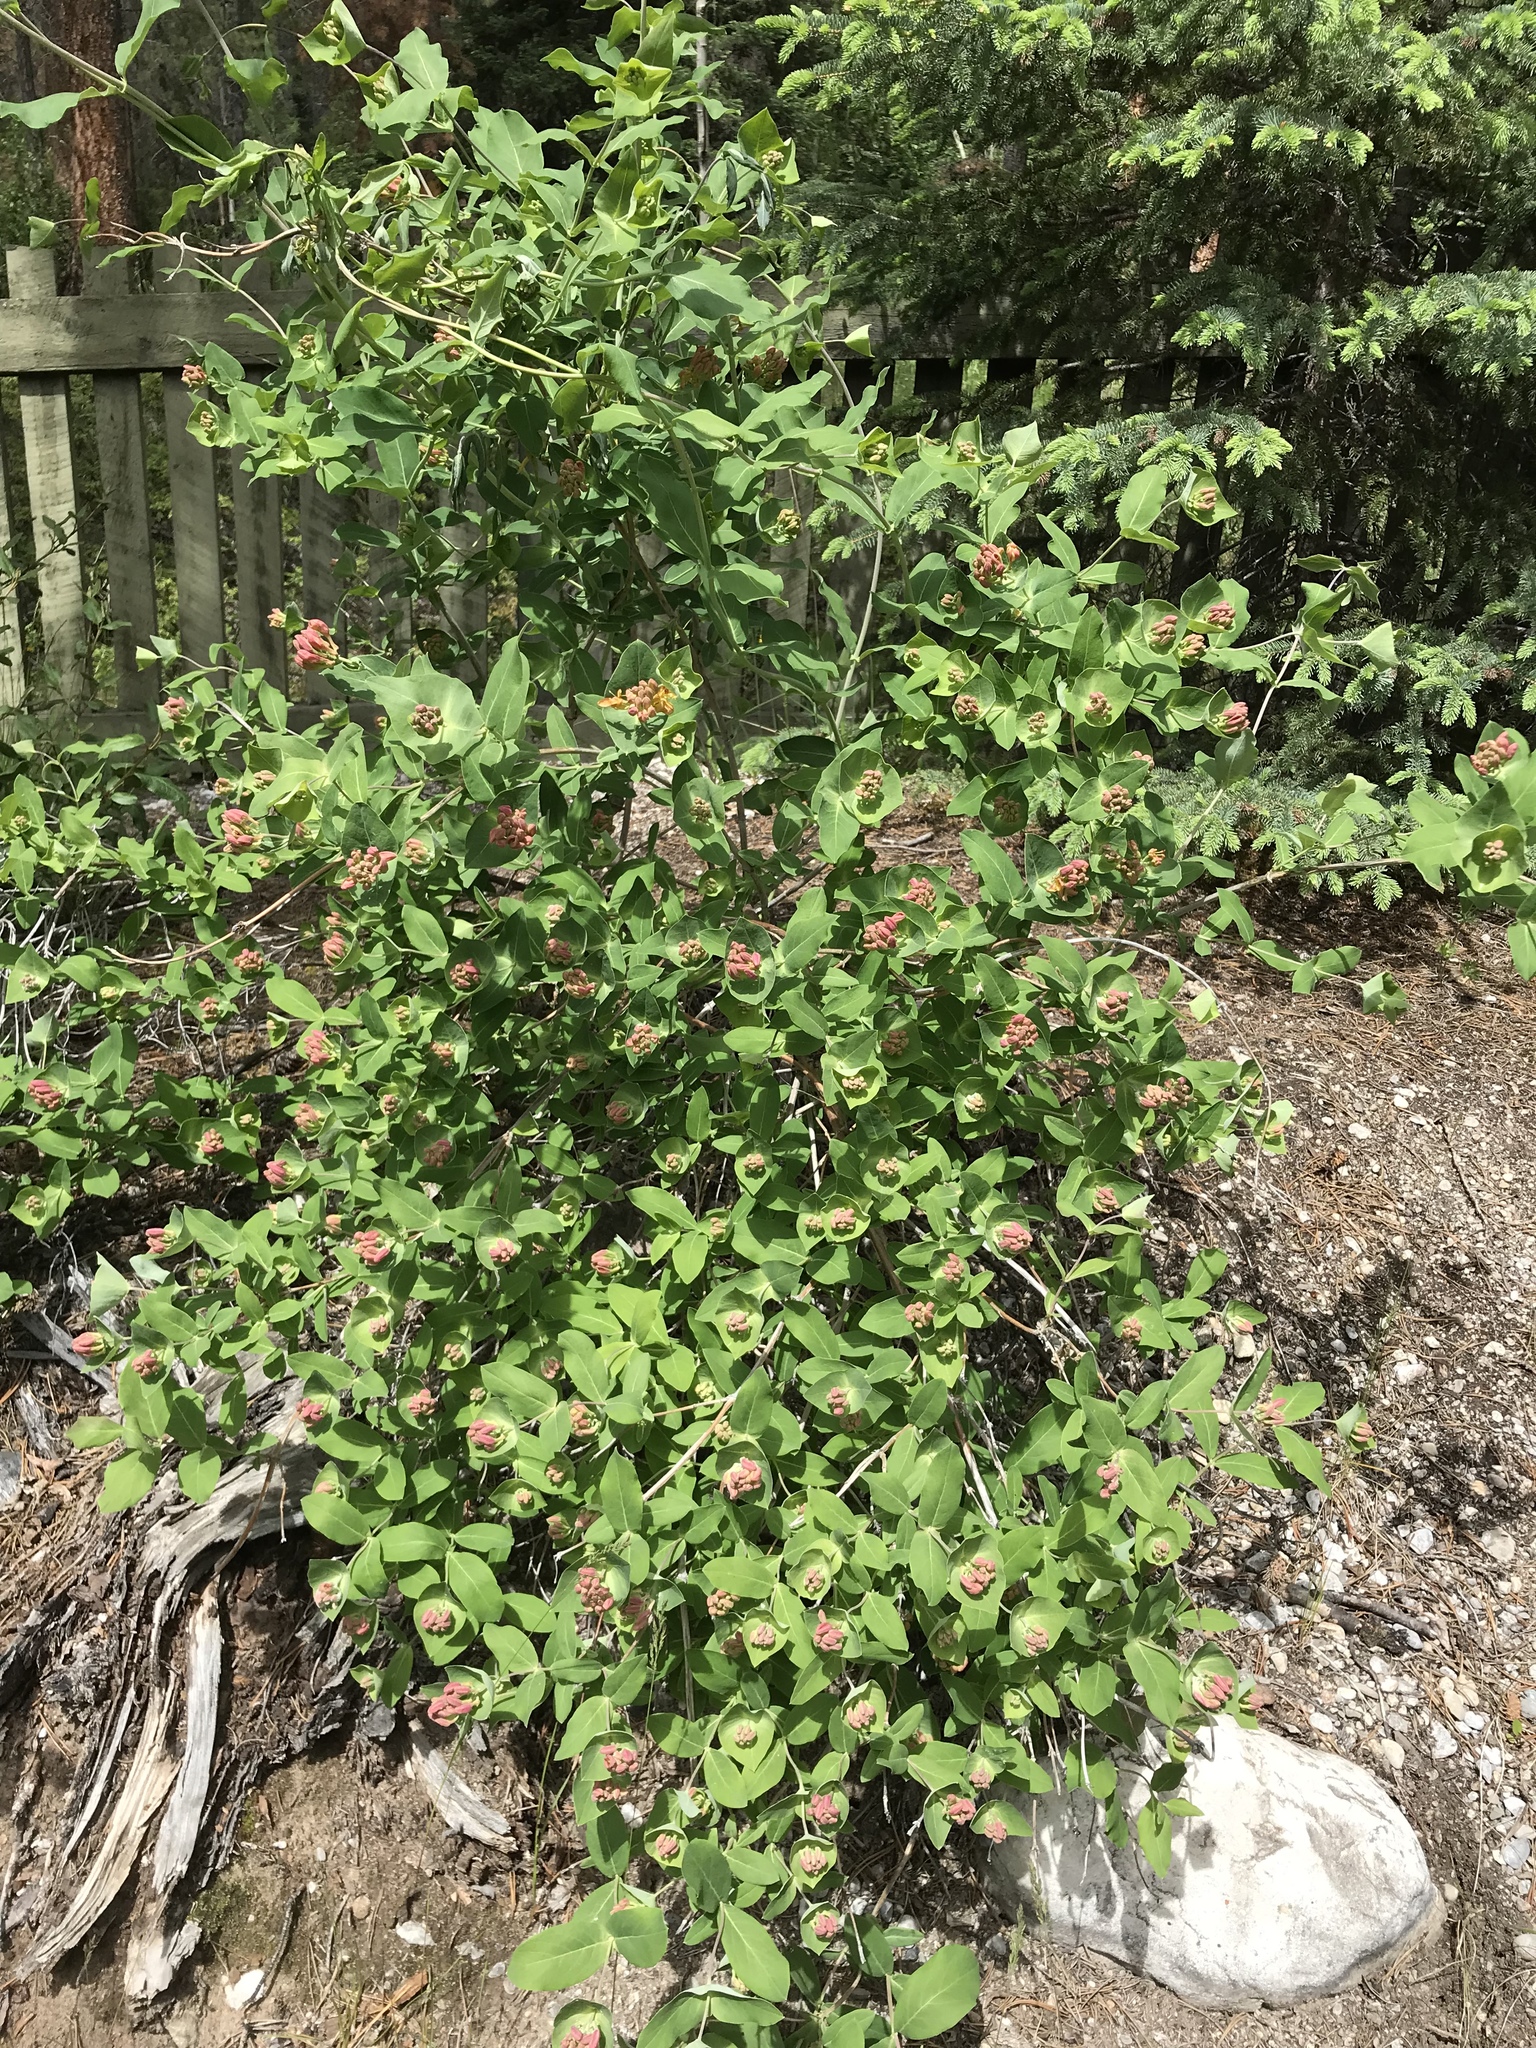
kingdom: Plantae
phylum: Tracheophyta
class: Magnoliopsida
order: Dipsacales
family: Caprifoliaceae
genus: Lonicera
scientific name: Lonicera dioica
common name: Limber honeysuckle
